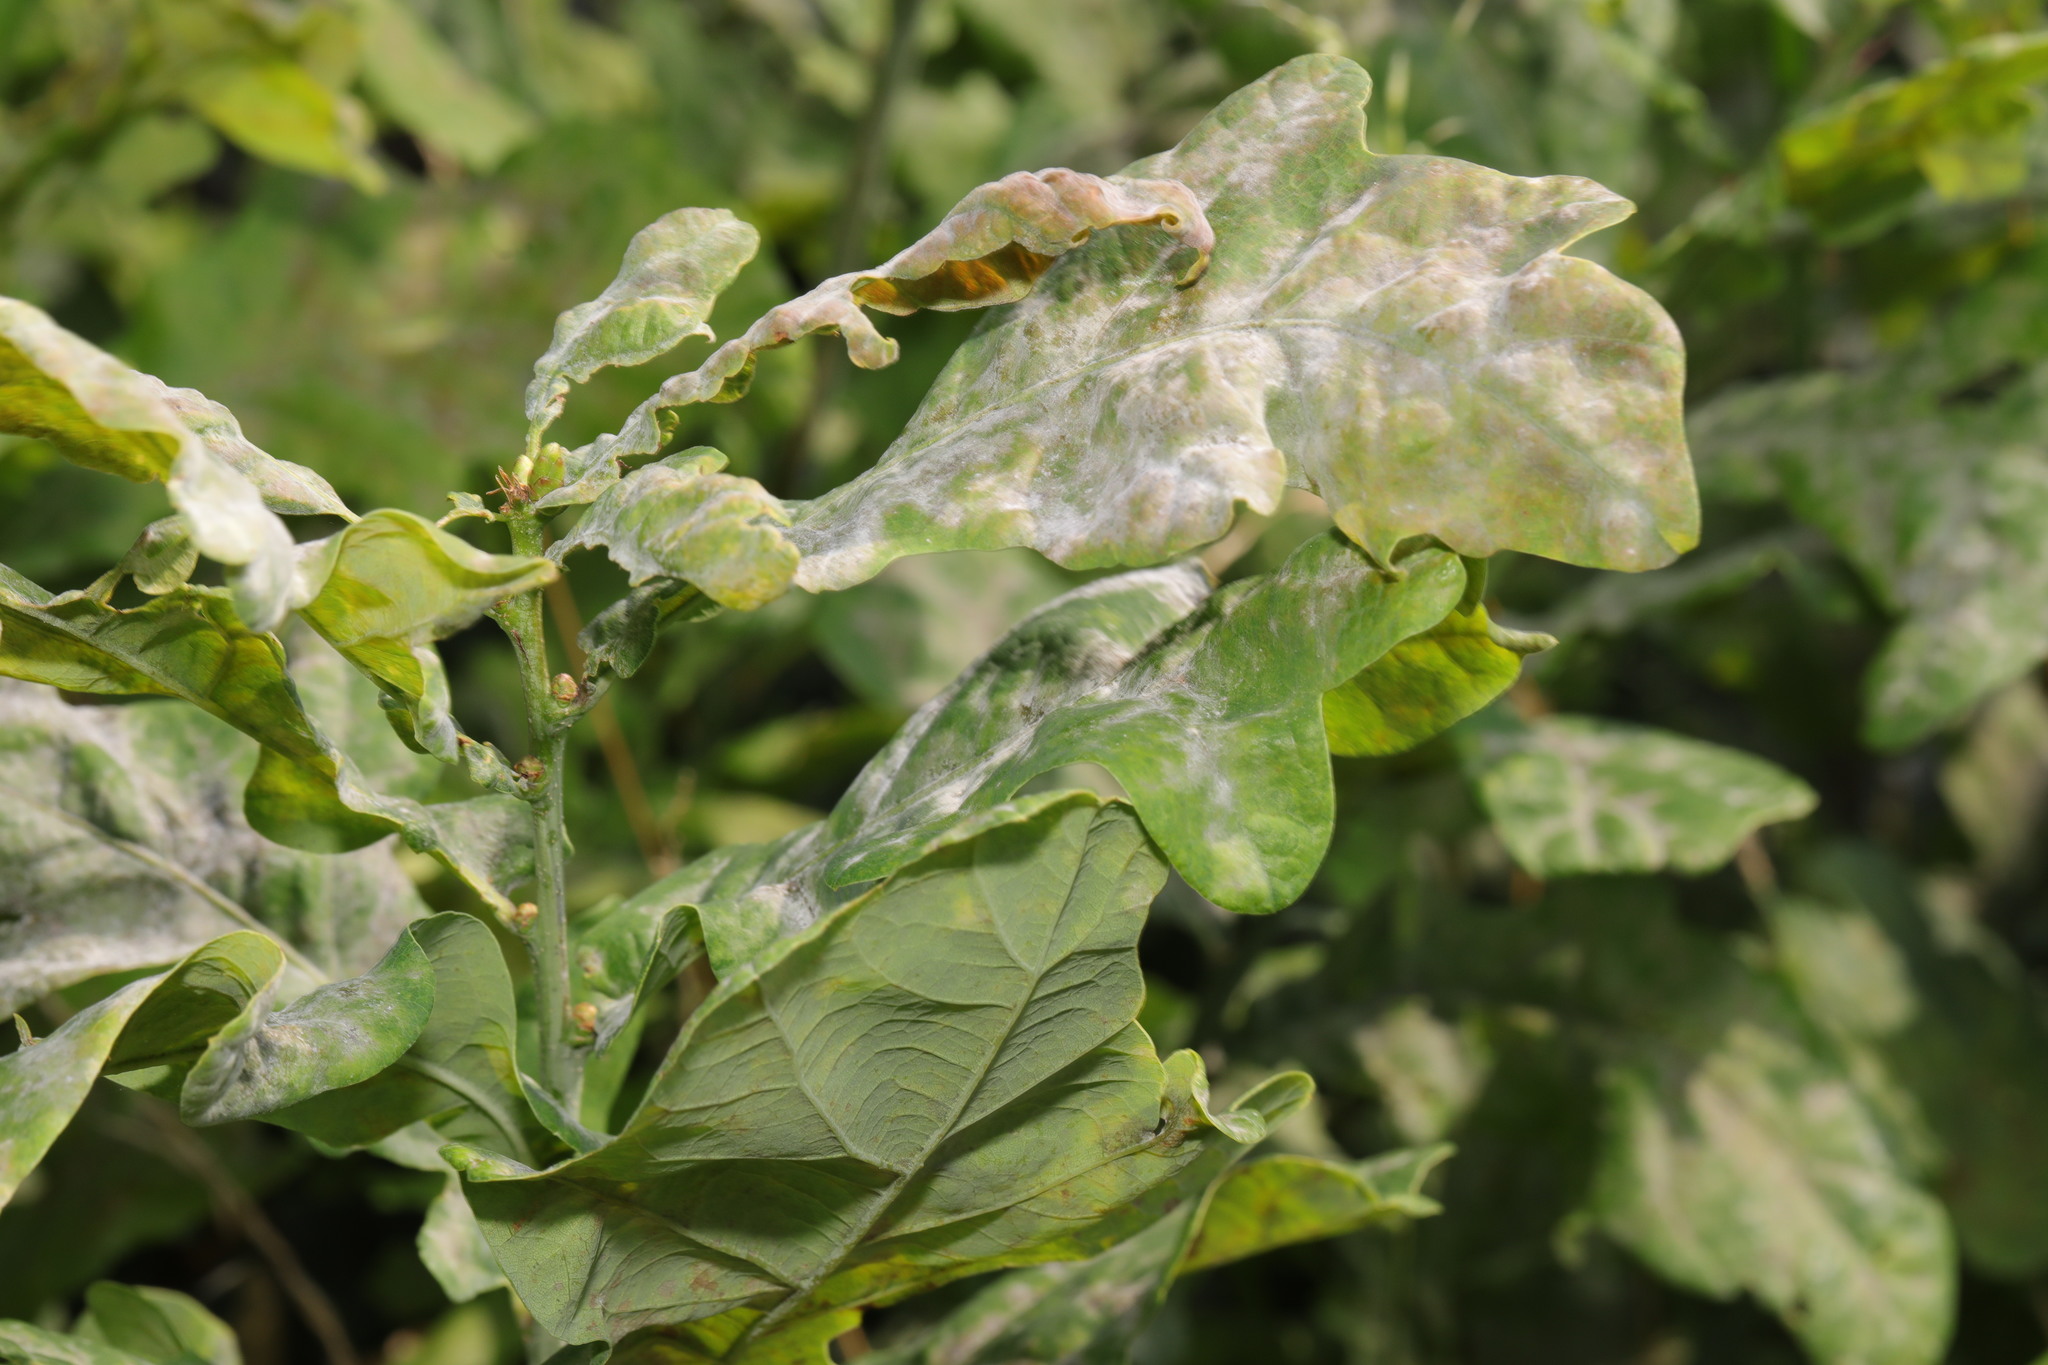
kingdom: Fungi
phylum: Ascomycota
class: Leotiomycetes
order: Helotiales
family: Erysiphaceae
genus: Erysiphe
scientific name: Erysiphe alphitoides
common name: Oak mildew
